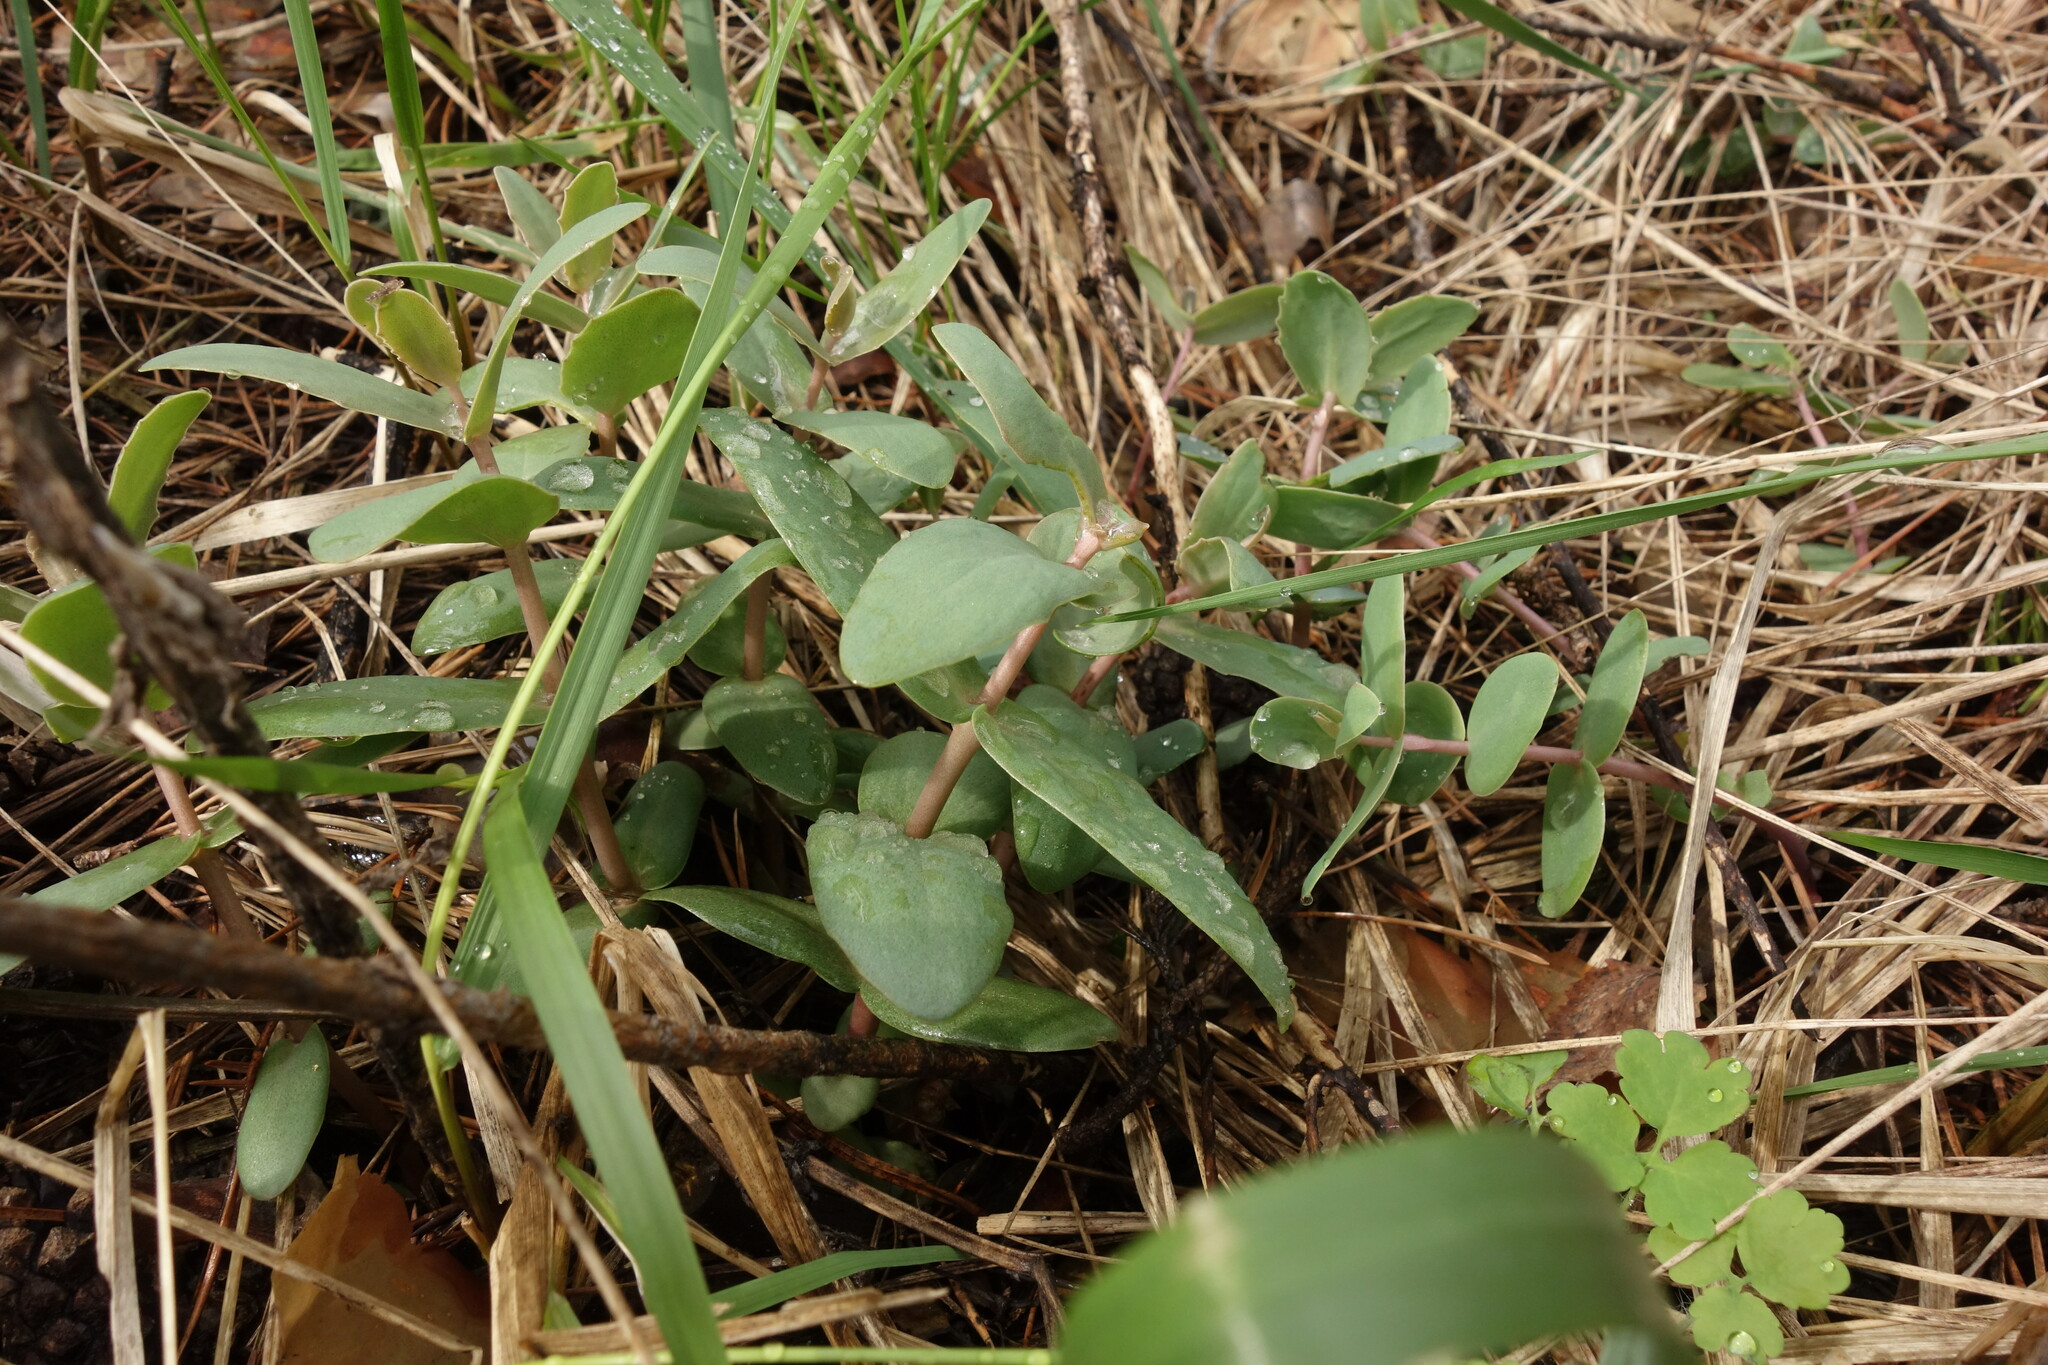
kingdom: Plantae
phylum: Tracheophyta
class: Magnoliopsida
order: Saxifragales
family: Crassulaceae
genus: Hylotelephium
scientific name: Hylotelephium maximum
